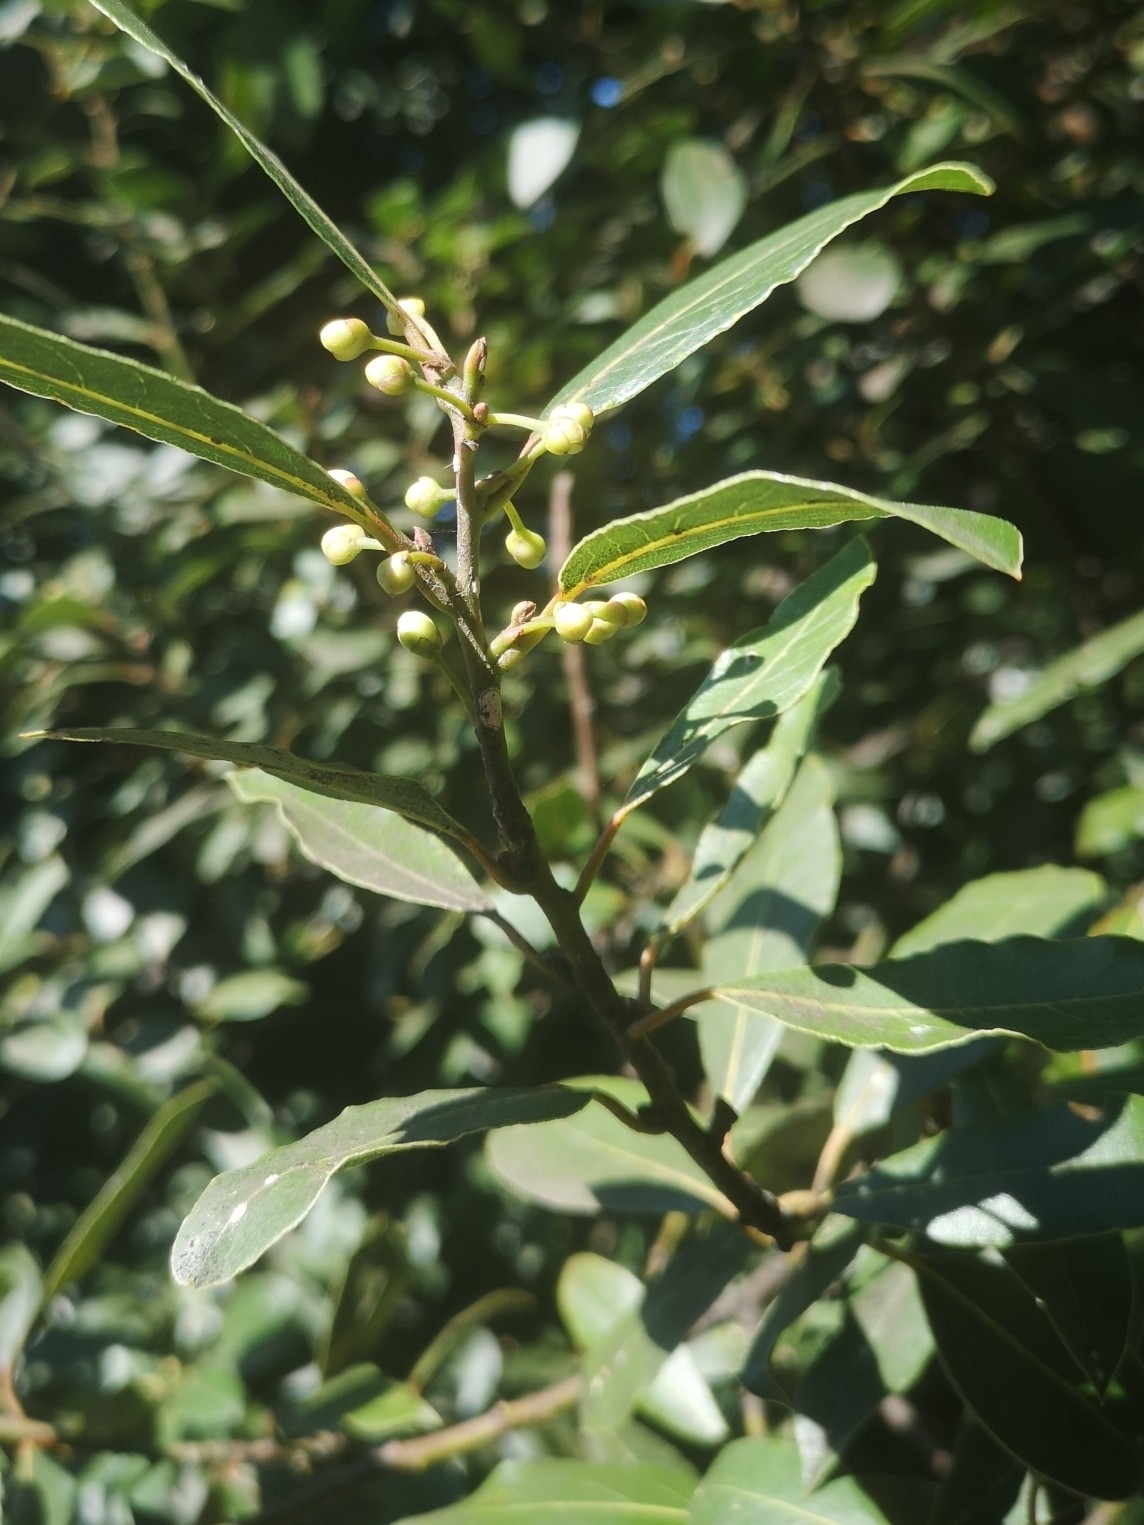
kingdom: Plantae
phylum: Tracheophyta
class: Magnoliopsida
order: Laurales
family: Lauraceae
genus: Laurus
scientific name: Laurus nobilis
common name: Bay
